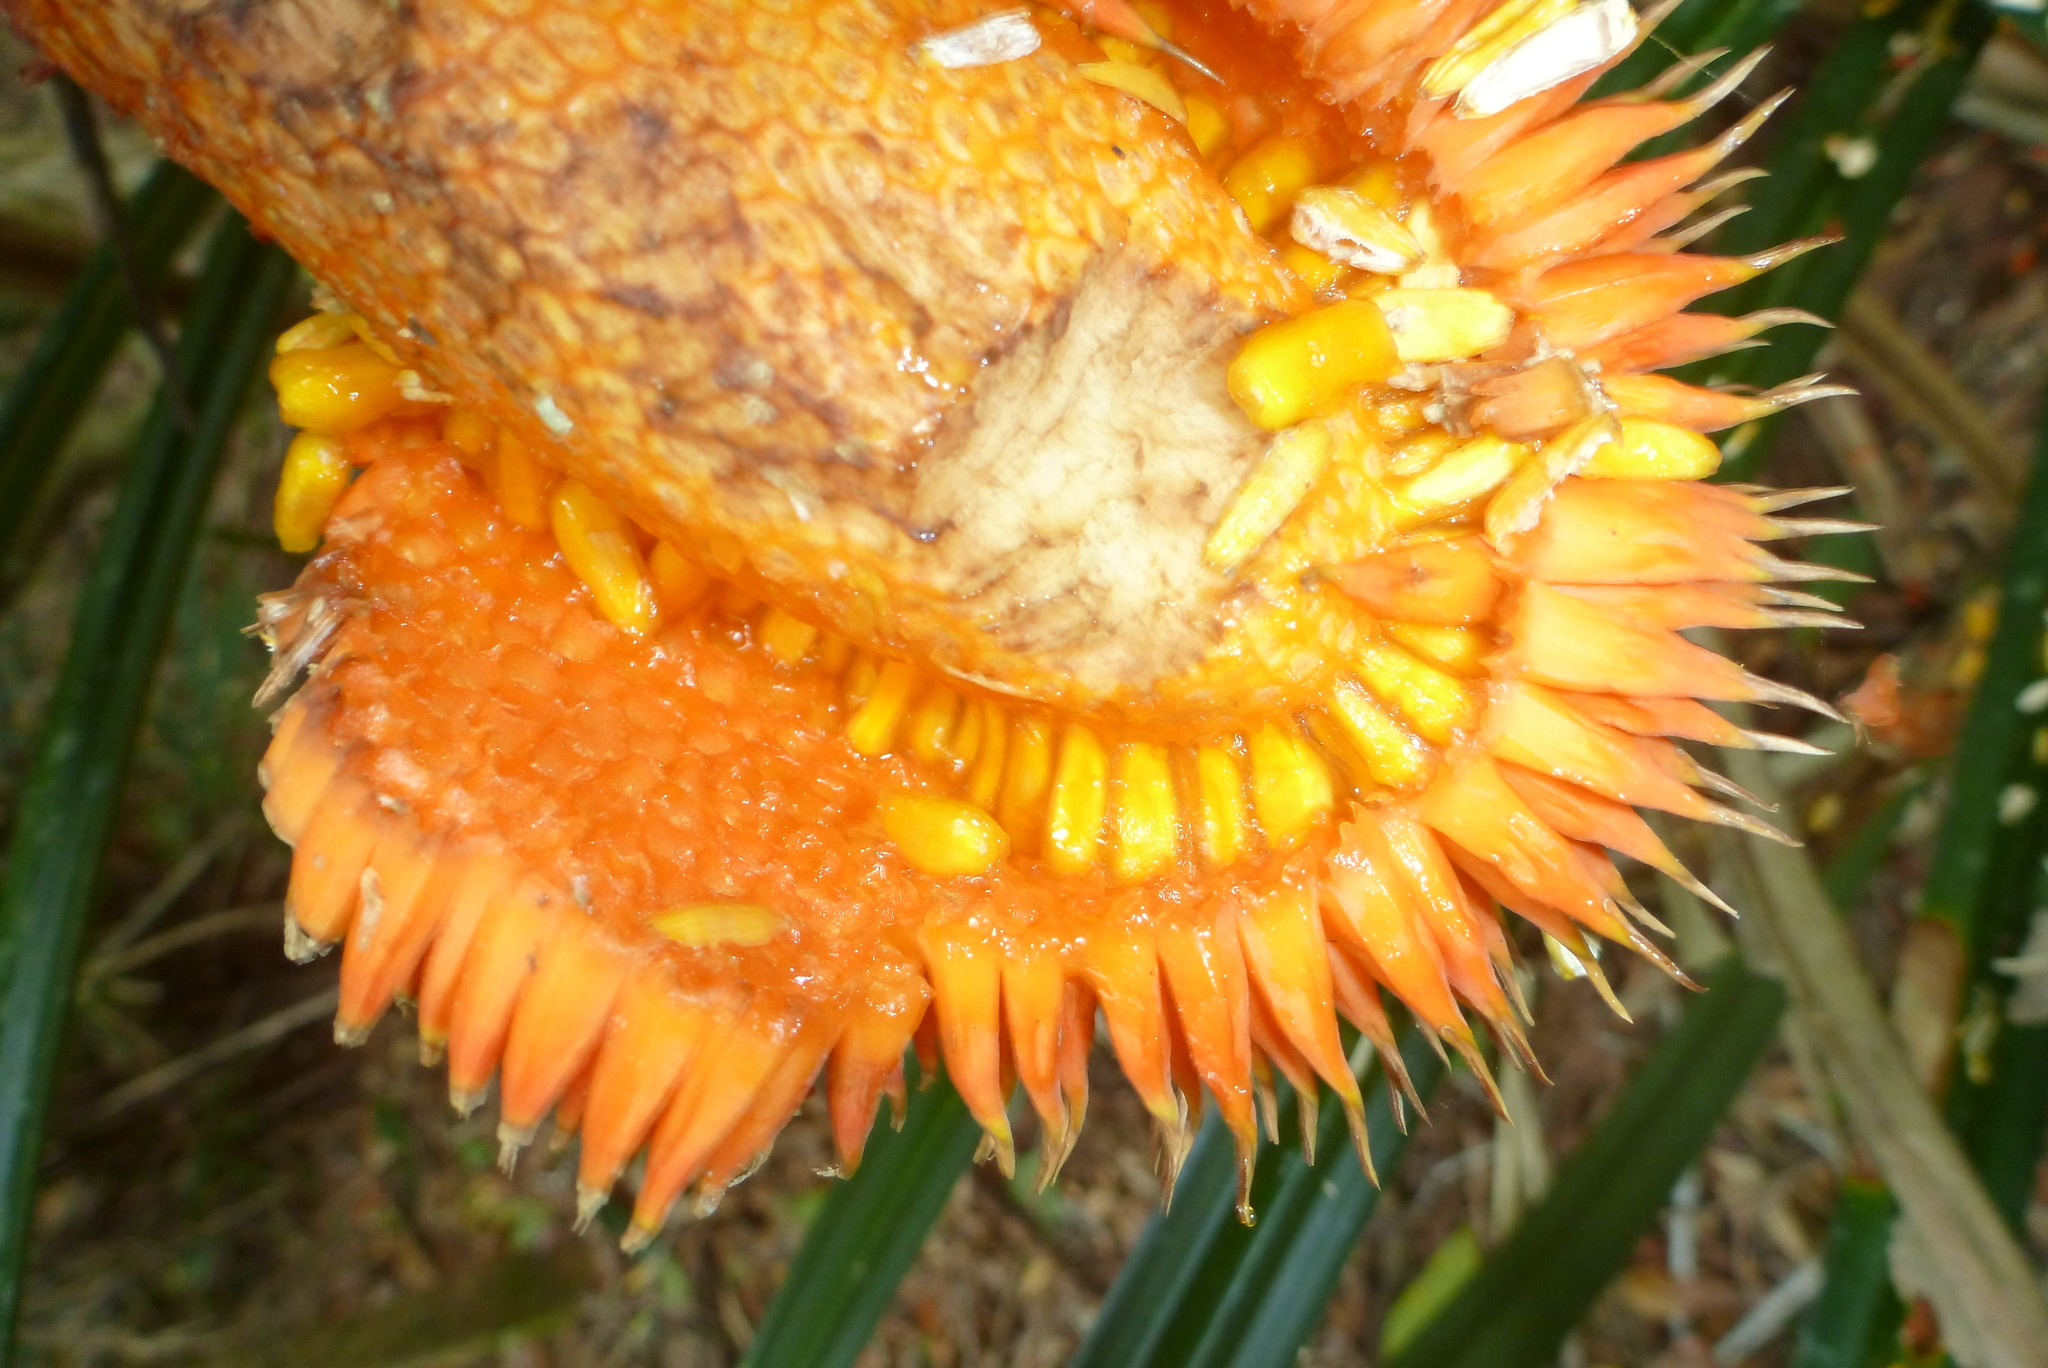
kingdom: Plantae
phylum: Tracheophyta
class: Liliopsida
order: Pandanales
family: Pandanaceae
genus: Benstonea
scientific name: Benstonea monticola
